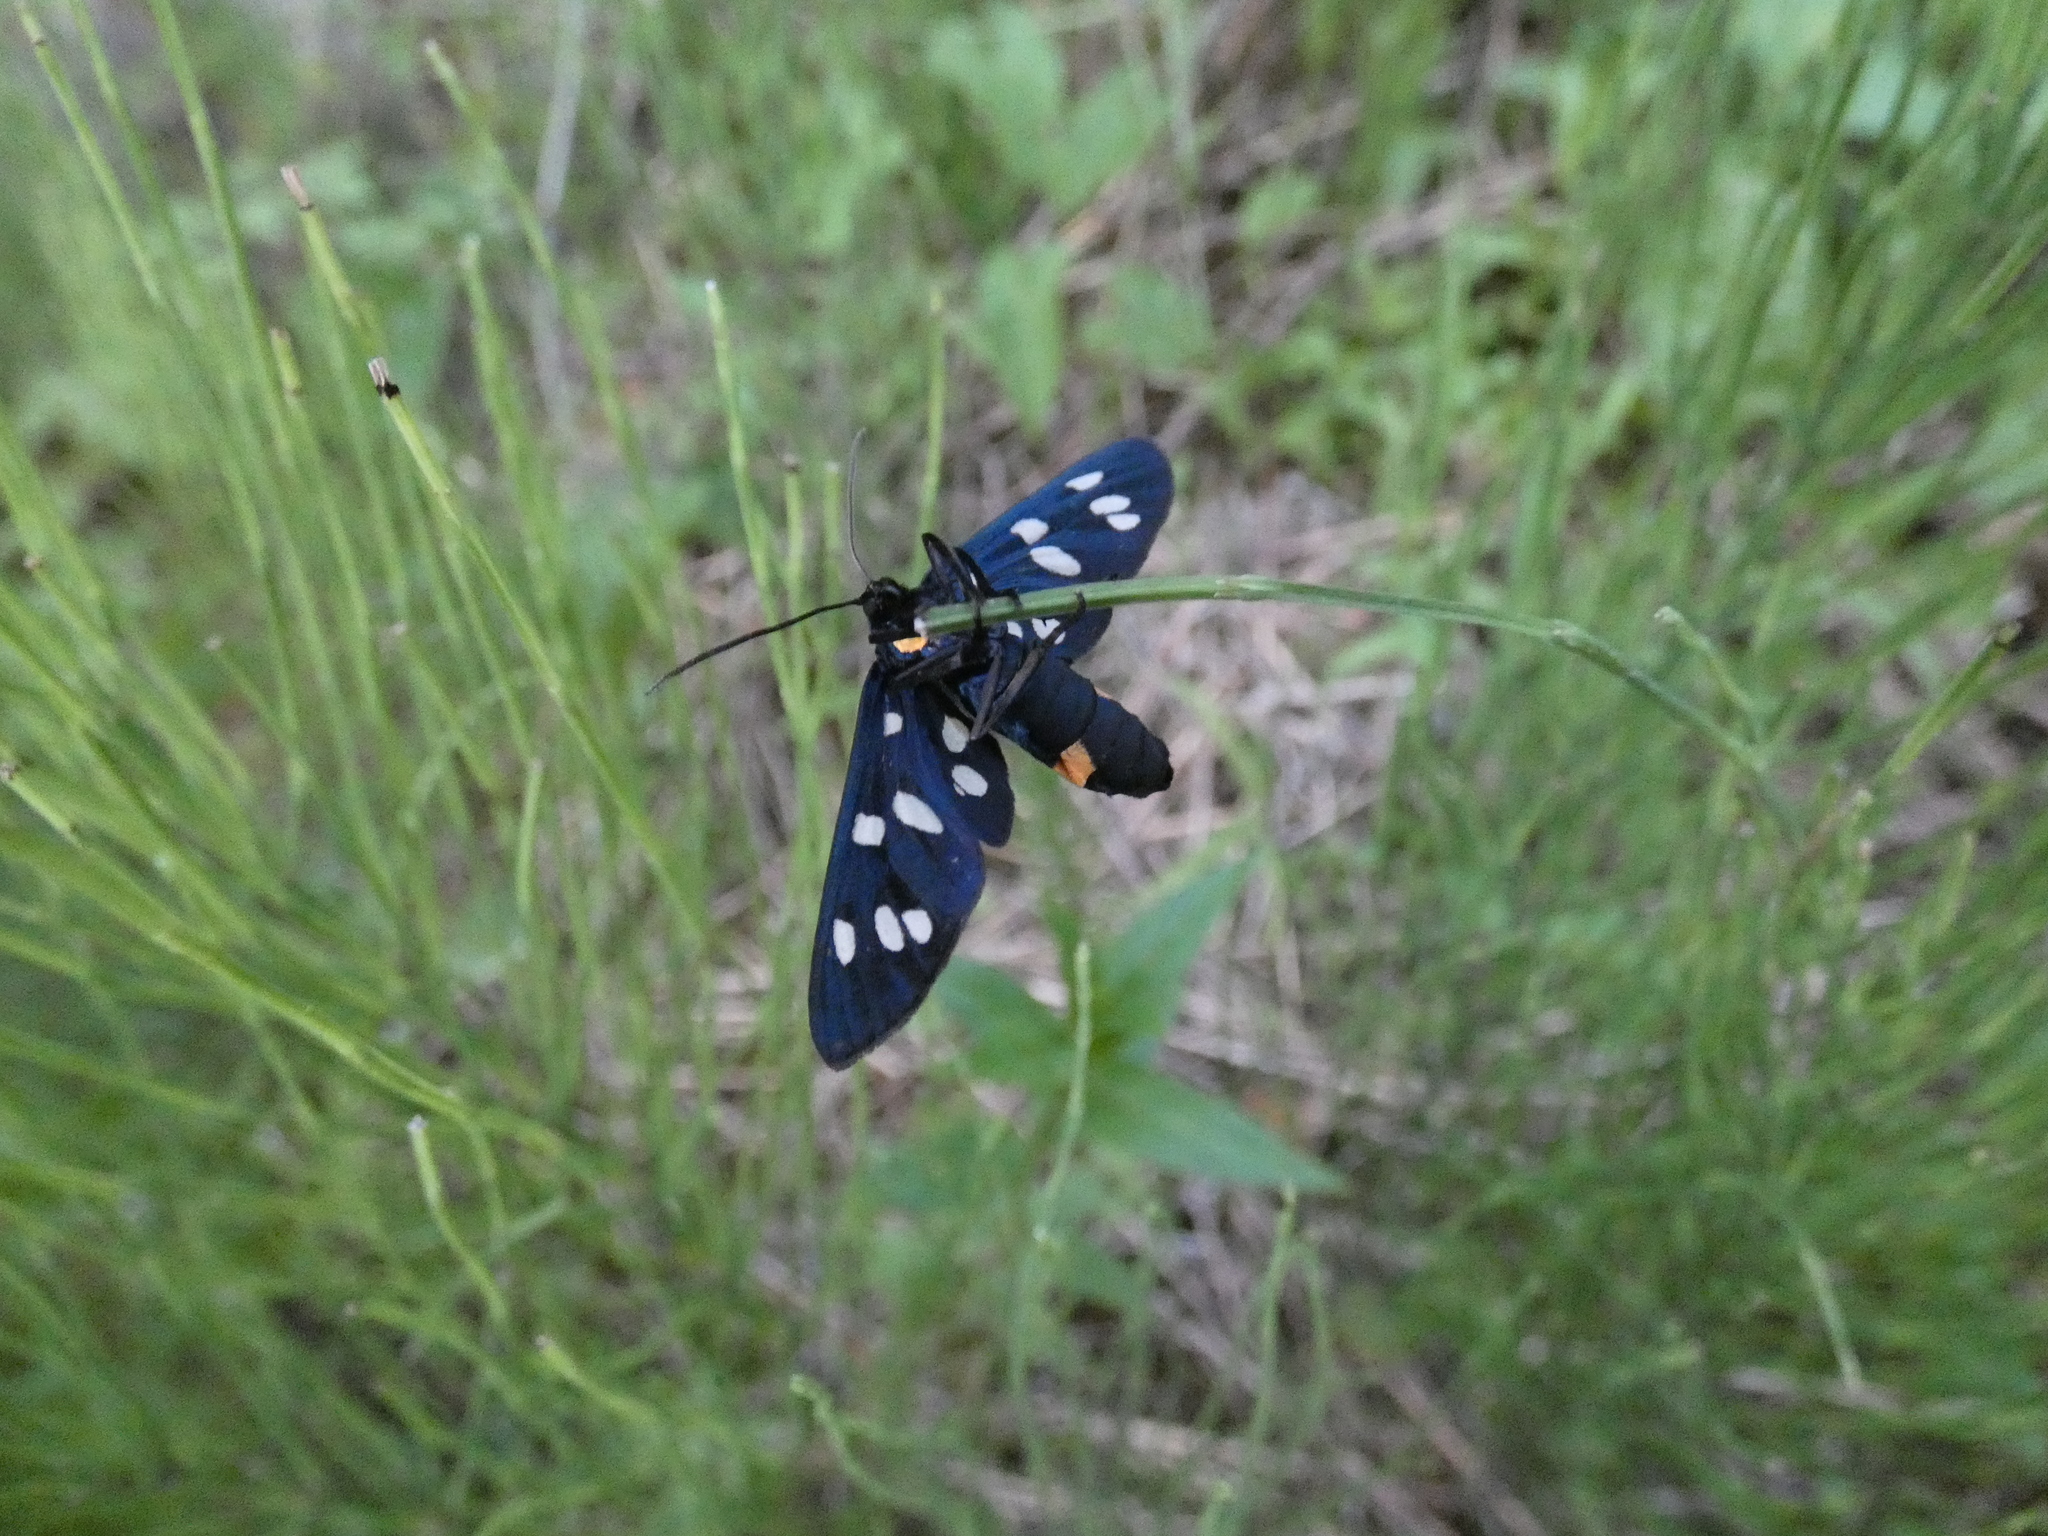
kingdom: Animalia
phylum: Arthropoda
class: Insecta
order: Lepidoptera
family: Erebidae
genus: Amata
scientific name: Amata phegea
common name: Nine-spotted
